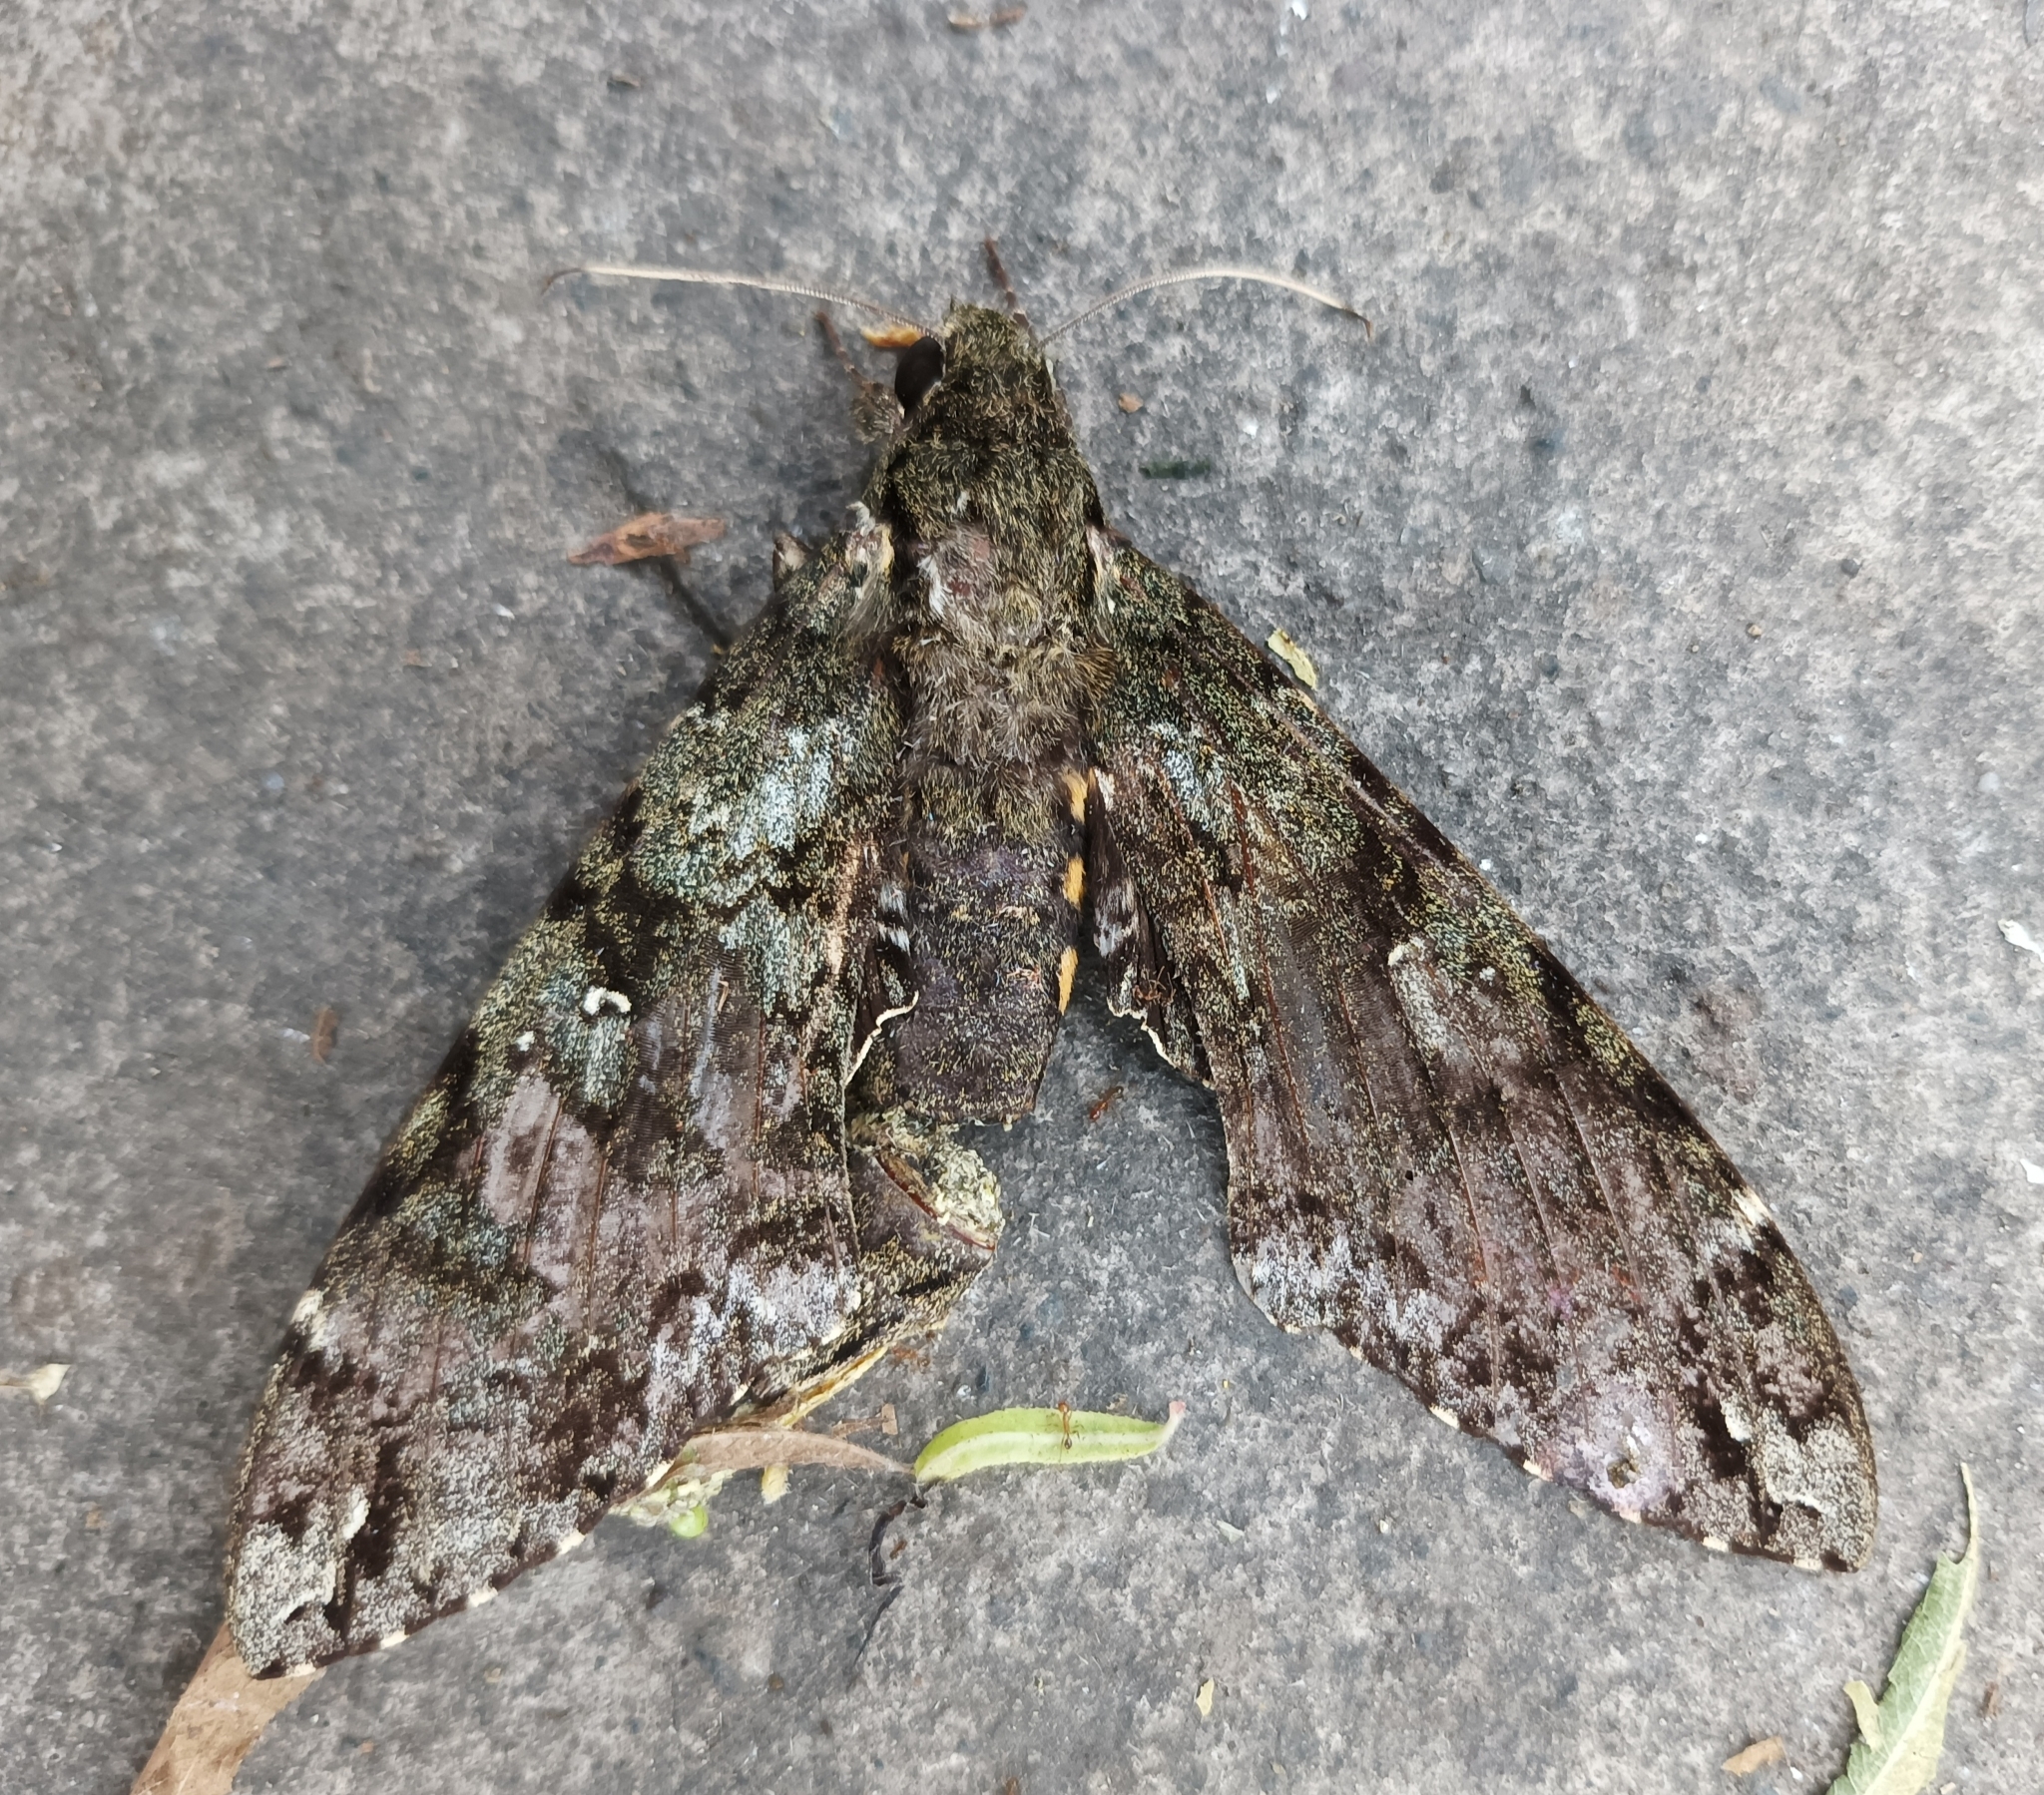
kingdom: Animalia
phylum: Arthropoda
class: Insecta
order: Lepidoptera
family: Sphingidae
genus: Cocytius
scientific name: Cocytius antaeus
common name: Giant sphinx
